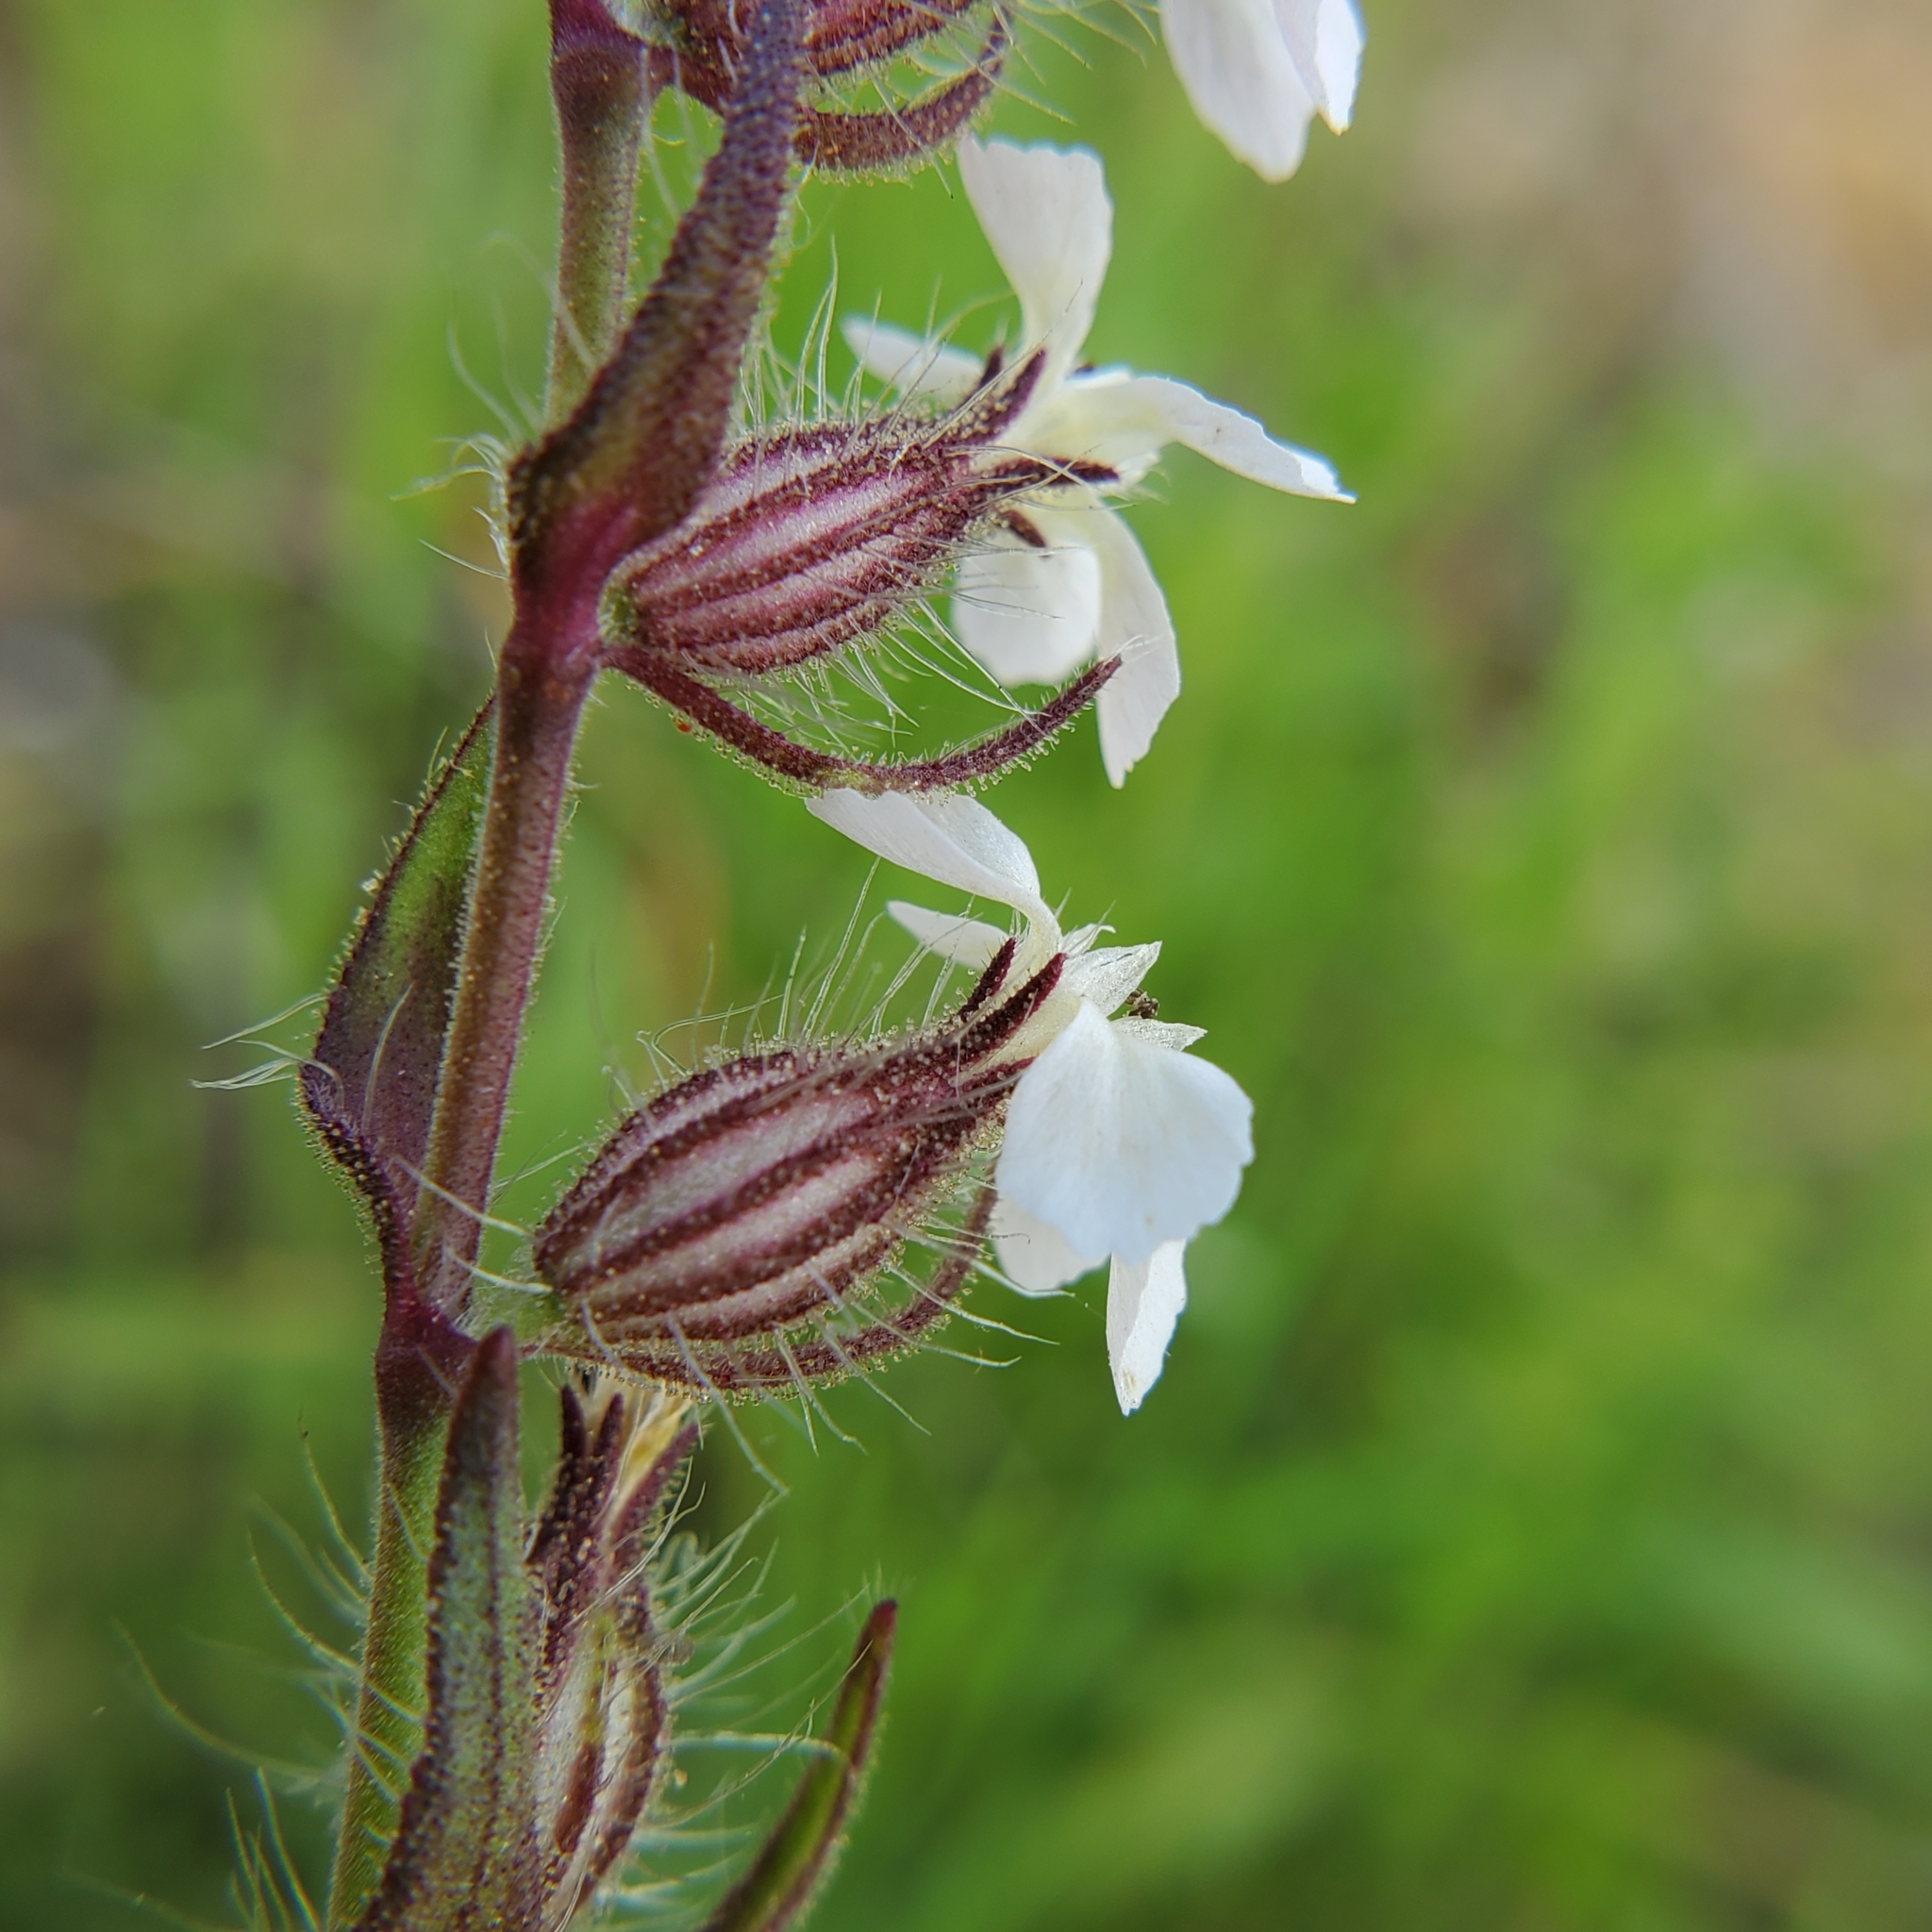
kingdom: Plantae
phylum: Tracheophyta
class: Magnoliopsida
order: Caryophyllales
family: Caryophyllaceae
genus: Silene
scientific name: Silene gallica
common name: Small-flowered catchfly
